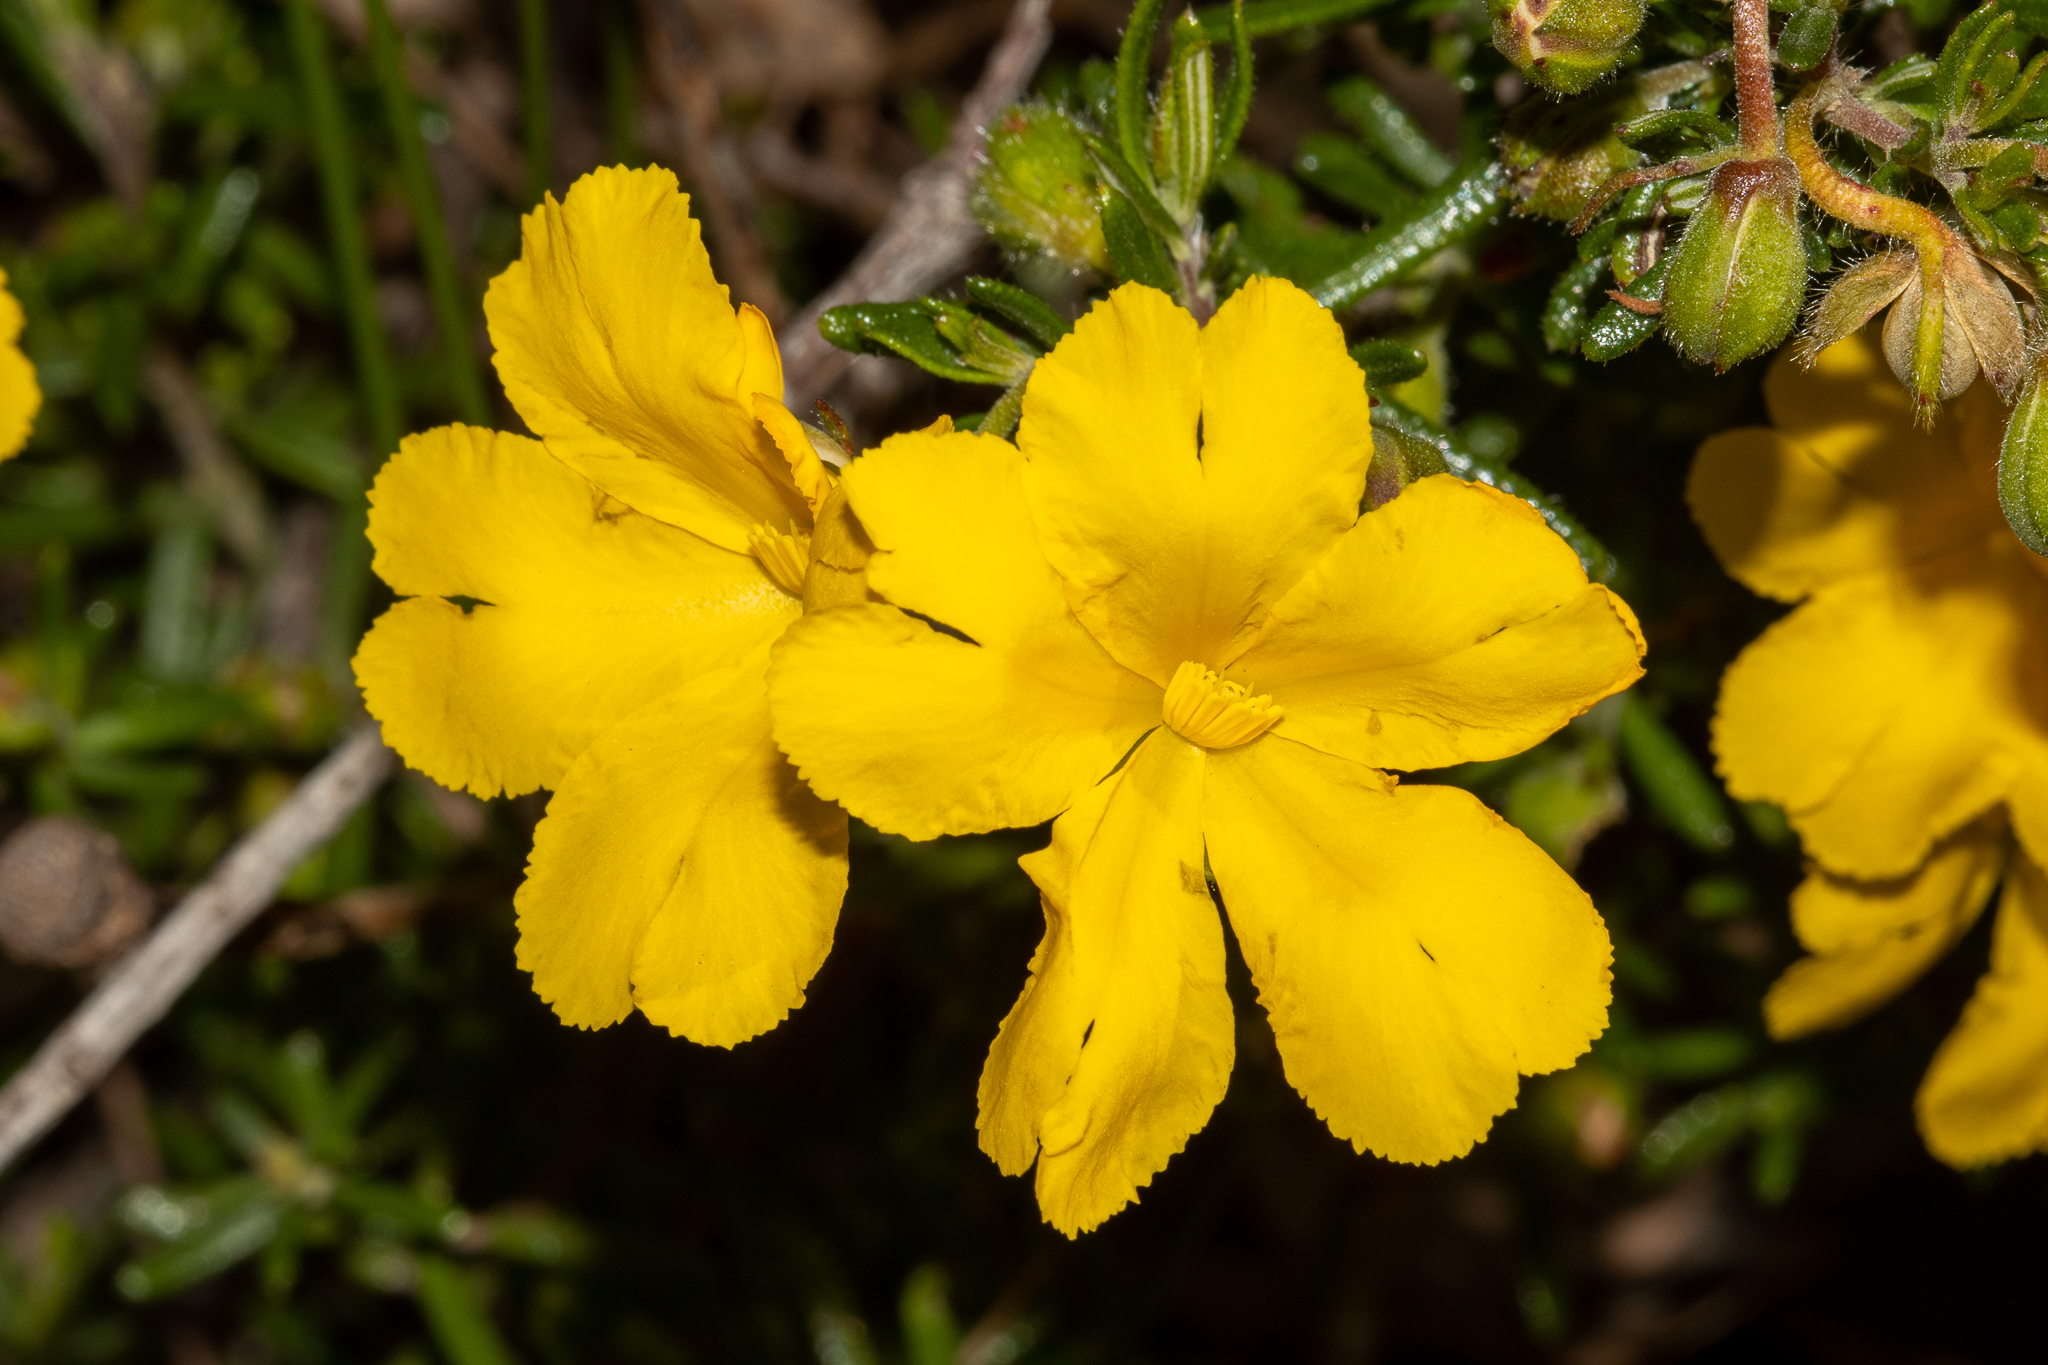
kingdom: Plantae
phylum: Tracheophyta
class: Magnoliopsida
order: Dilleniales
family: Dilleniaceae
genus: Hibbertia
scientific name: Hibbertia hypericoides
